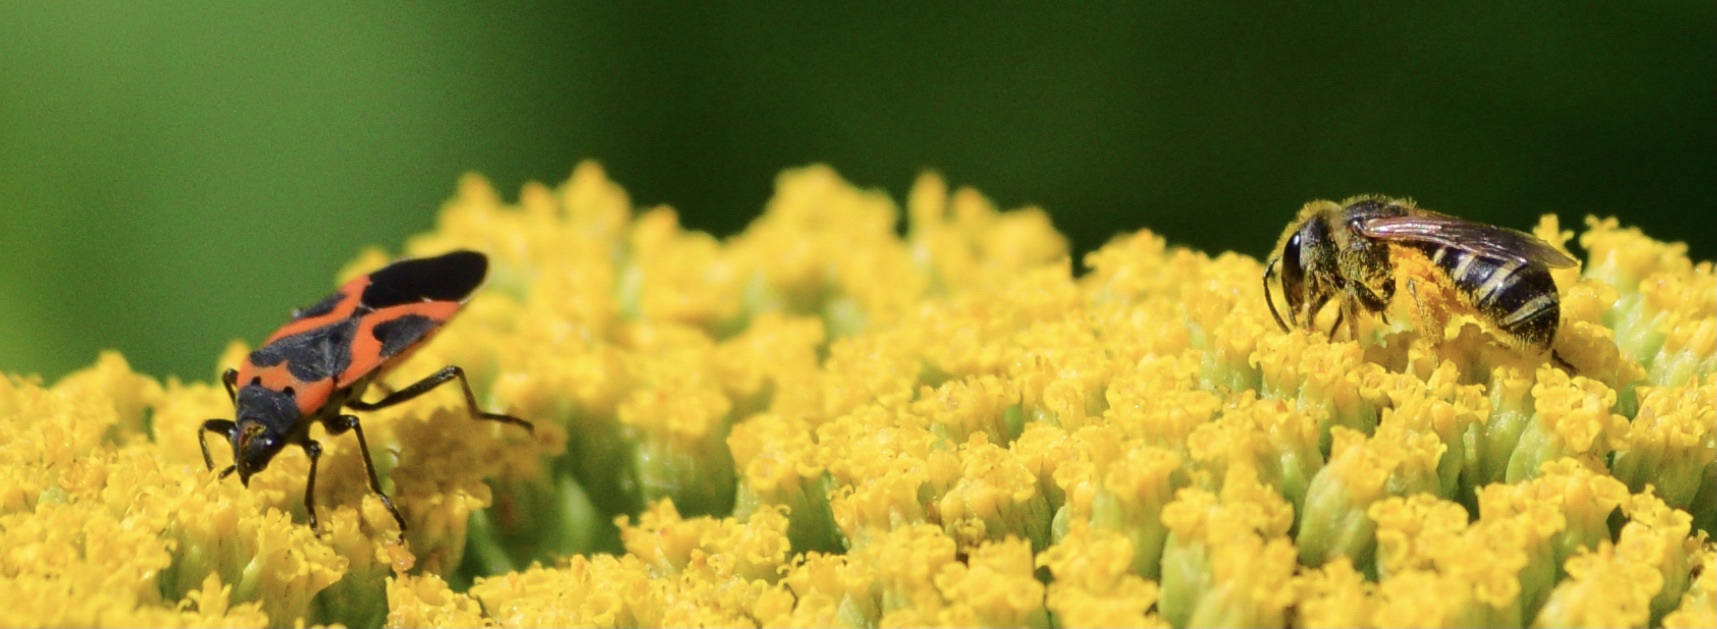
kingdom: Animalia
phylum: Arthropoda
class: Insecta
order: Hymenoptera
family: Halictidae
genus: Halictus
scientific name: Halictus ligatus
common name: Ligated furrow bee
